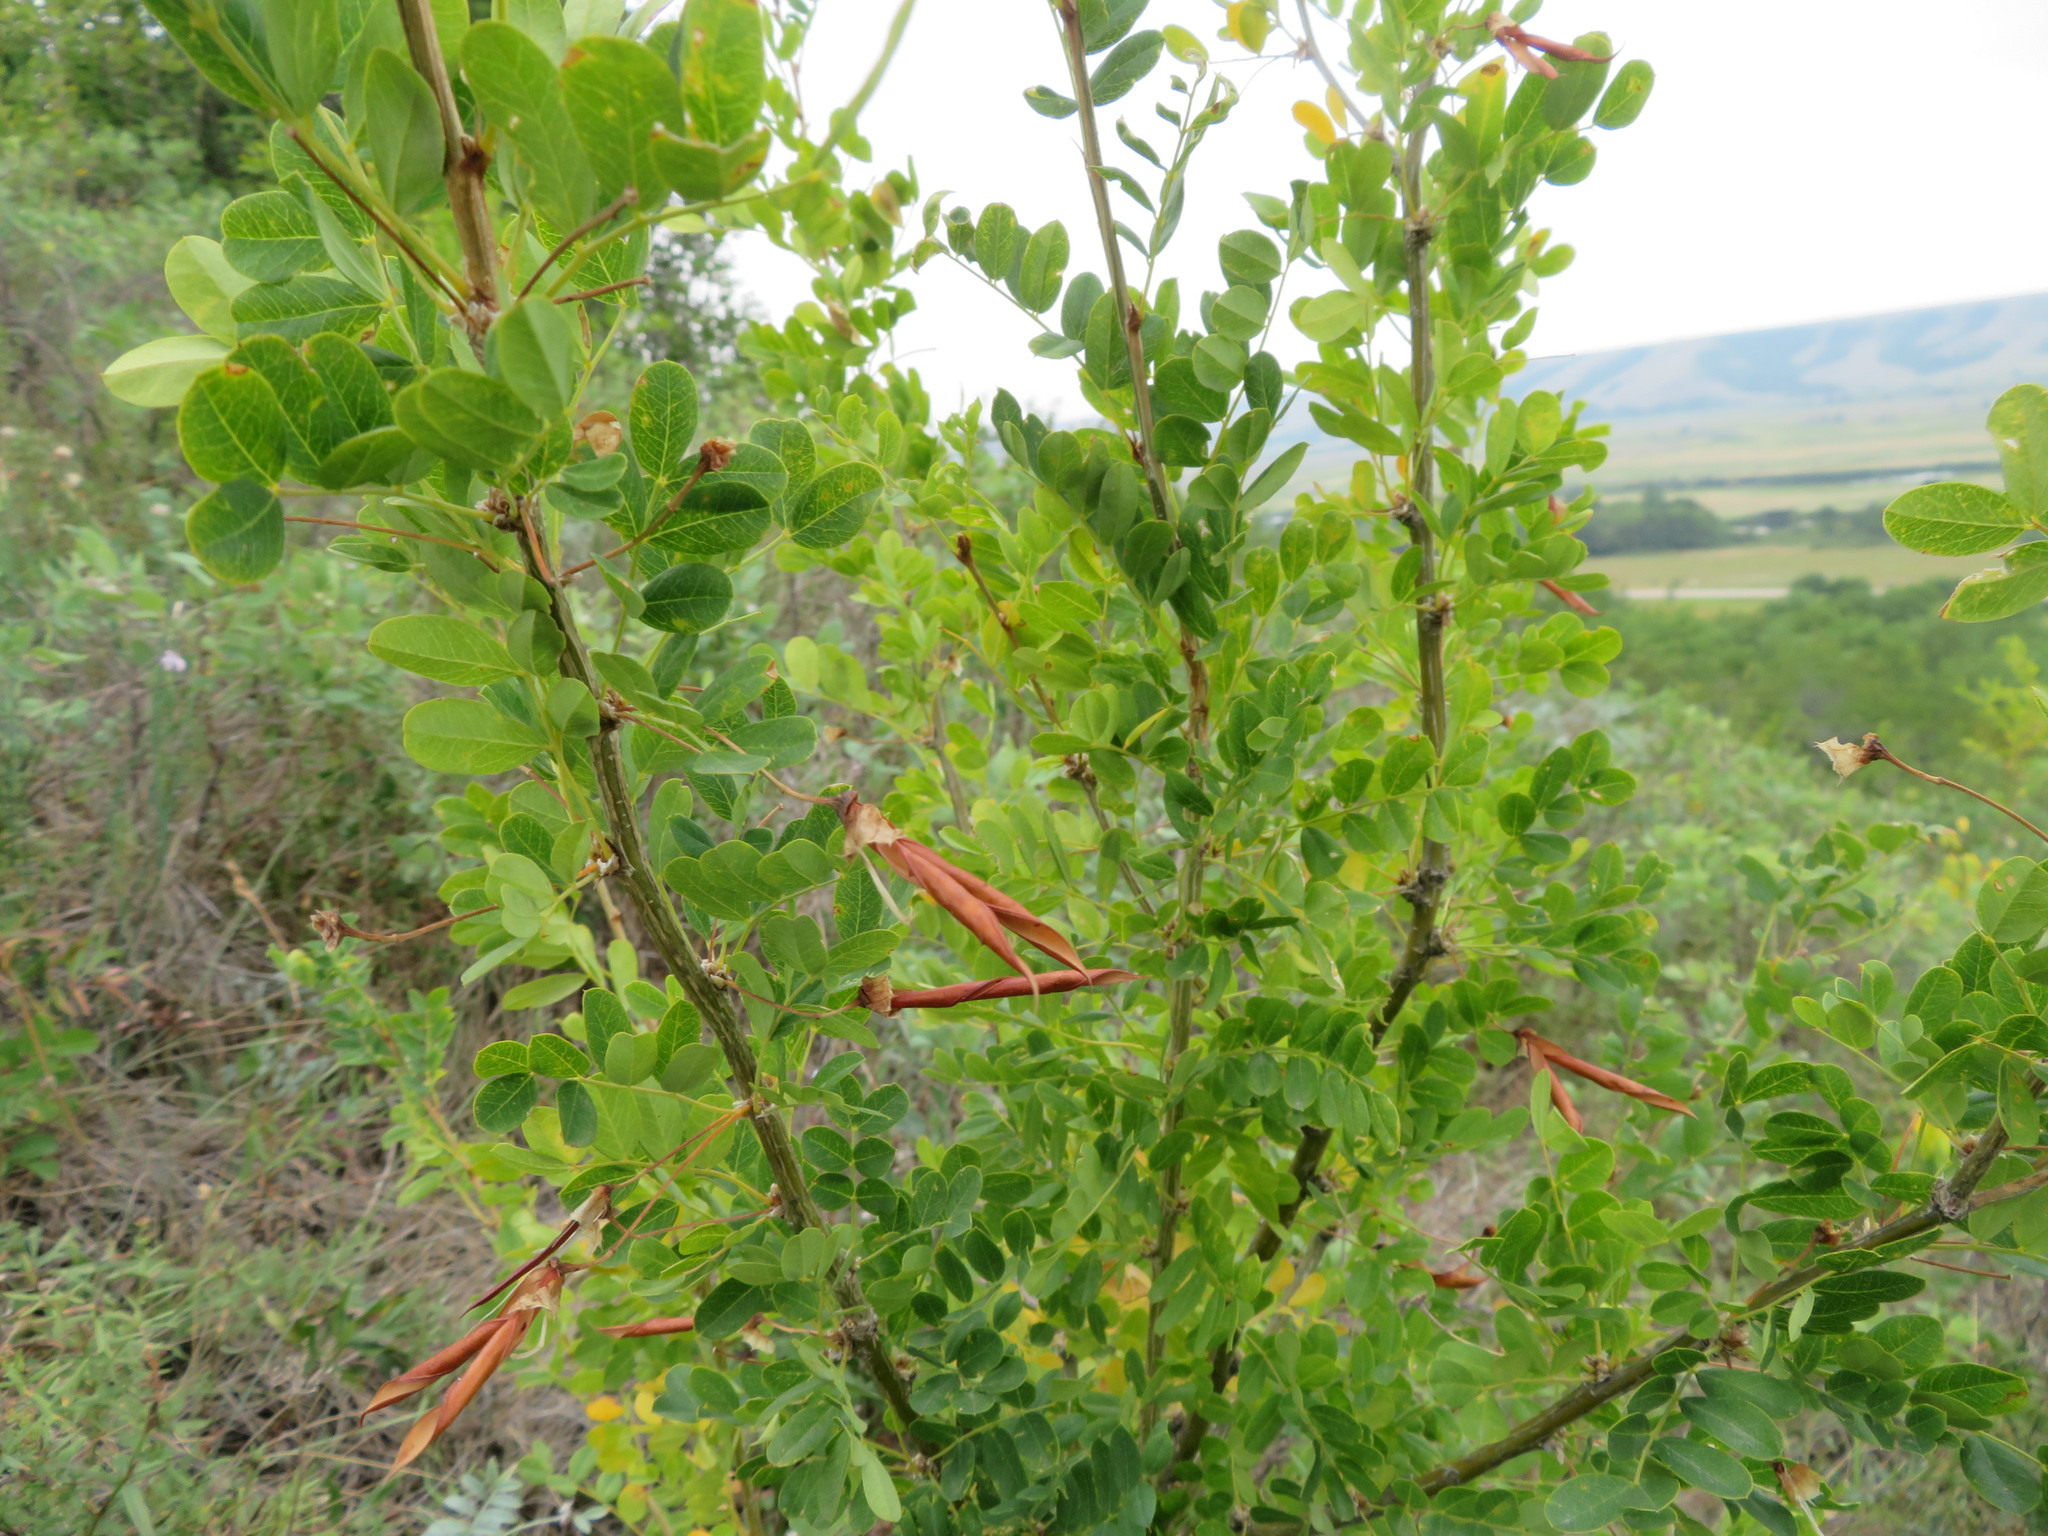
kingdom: Plantae
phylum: Tracheophyta
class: Magnoliopsida
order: Fabales
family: Fabaceae
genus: Caragana
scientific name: Caragana arborescens
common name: Siberian peashrub
